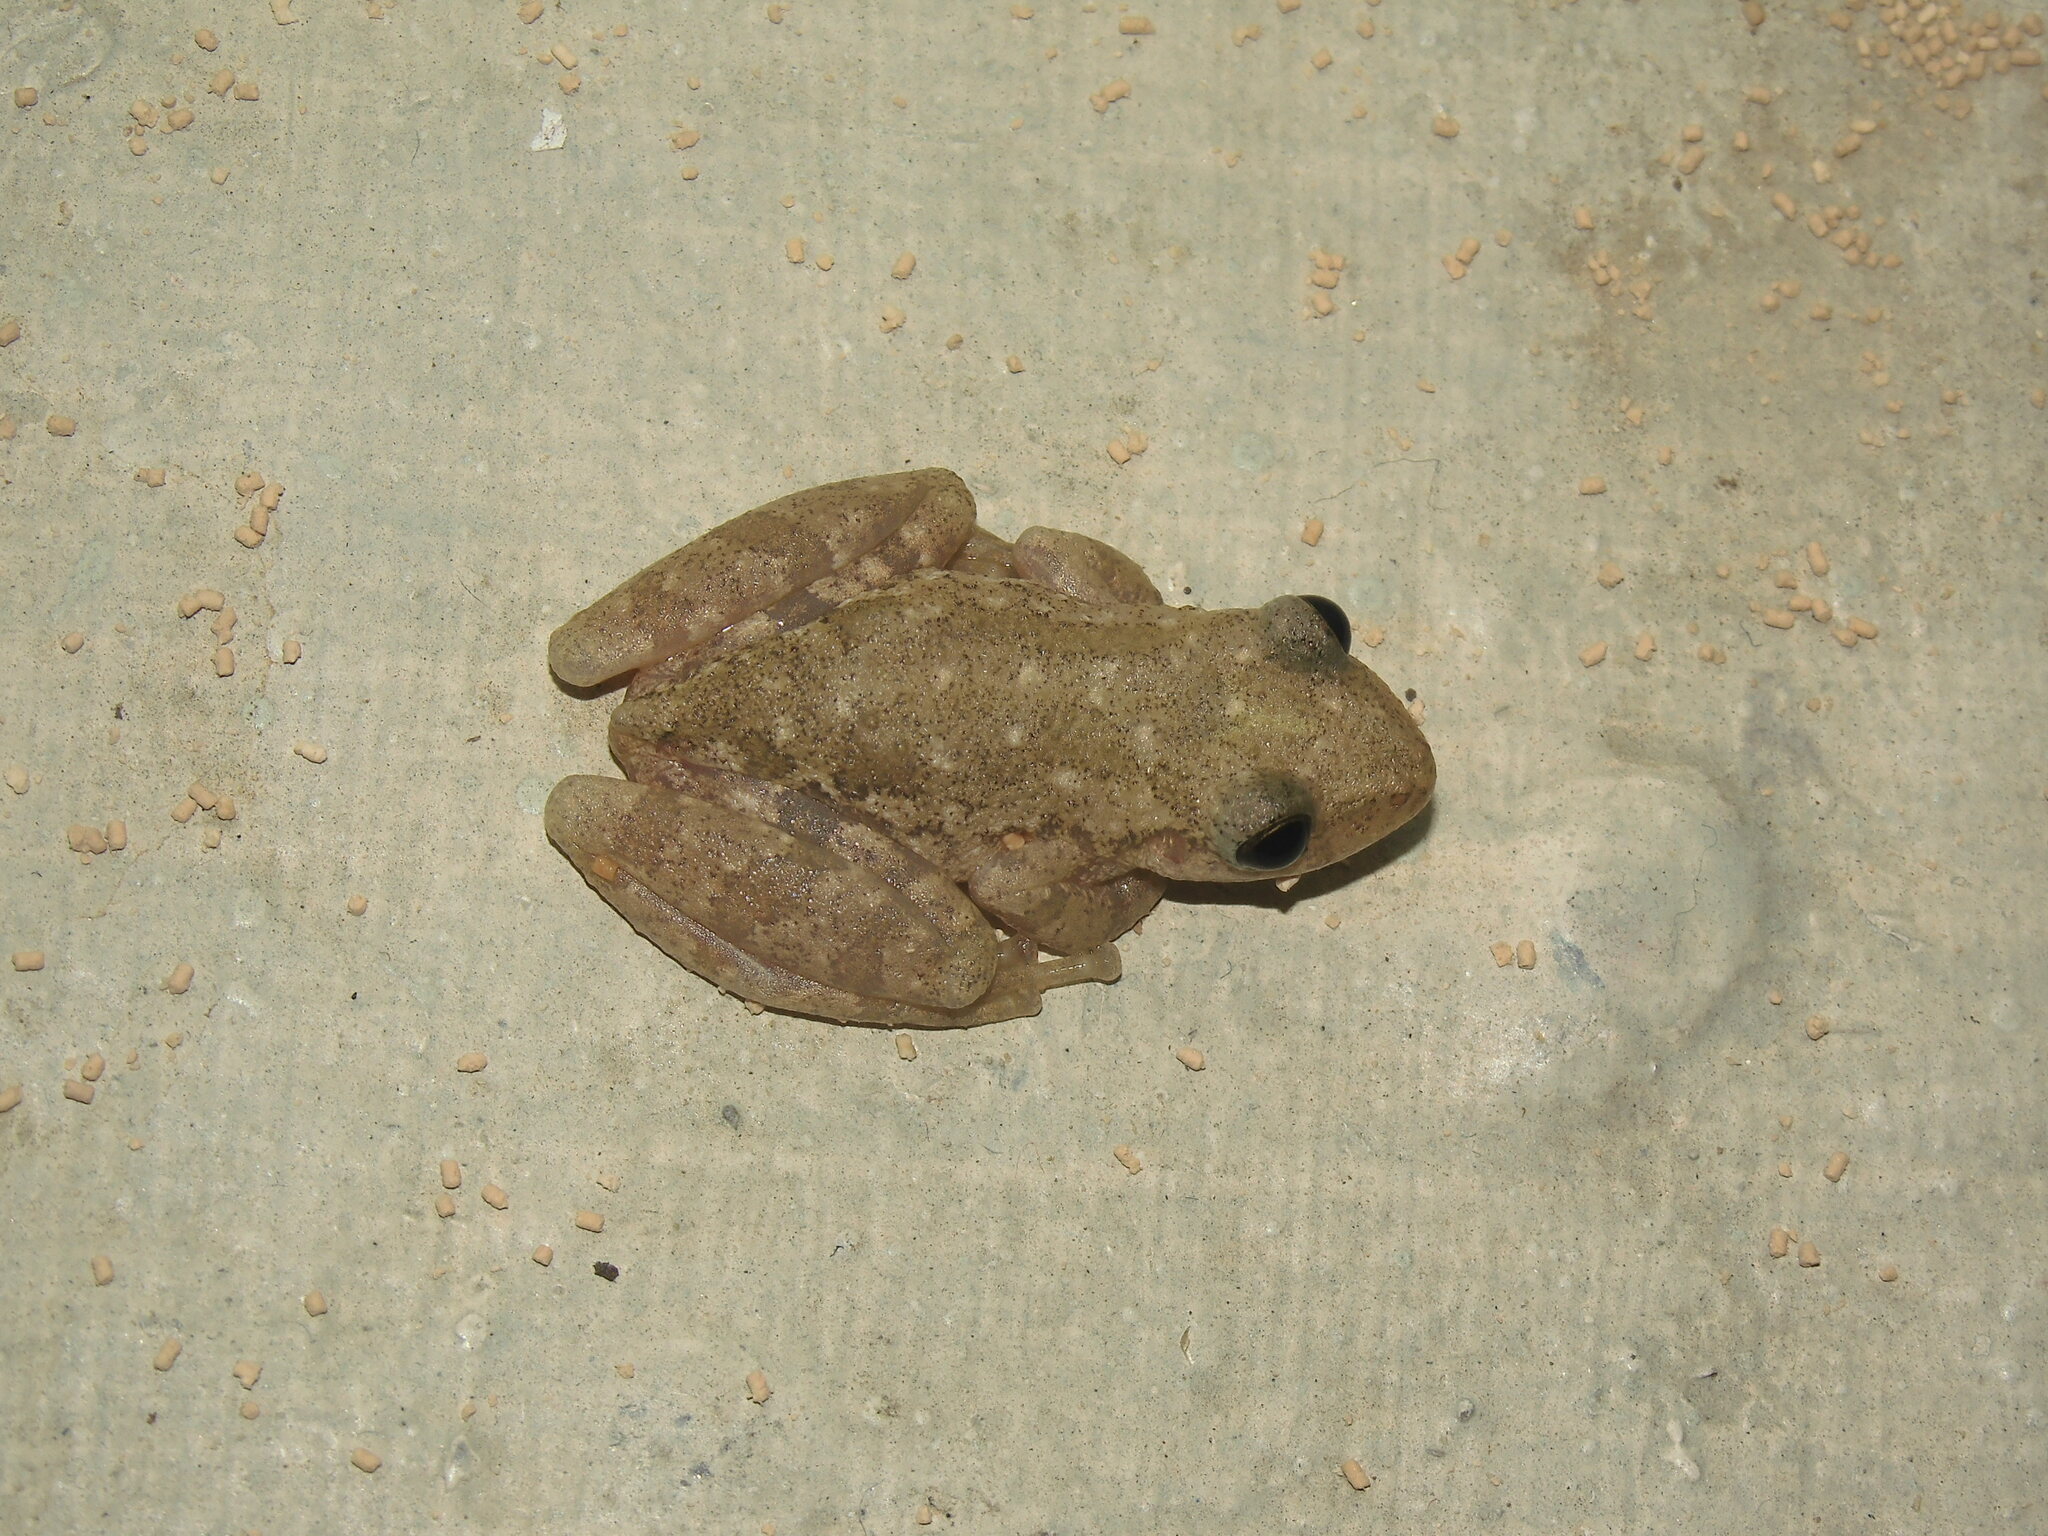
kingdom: Animalia
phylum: Chordata
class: Amphibia
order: Anura
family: Hylidae
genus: Scinax
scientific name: Scinax granulatus
